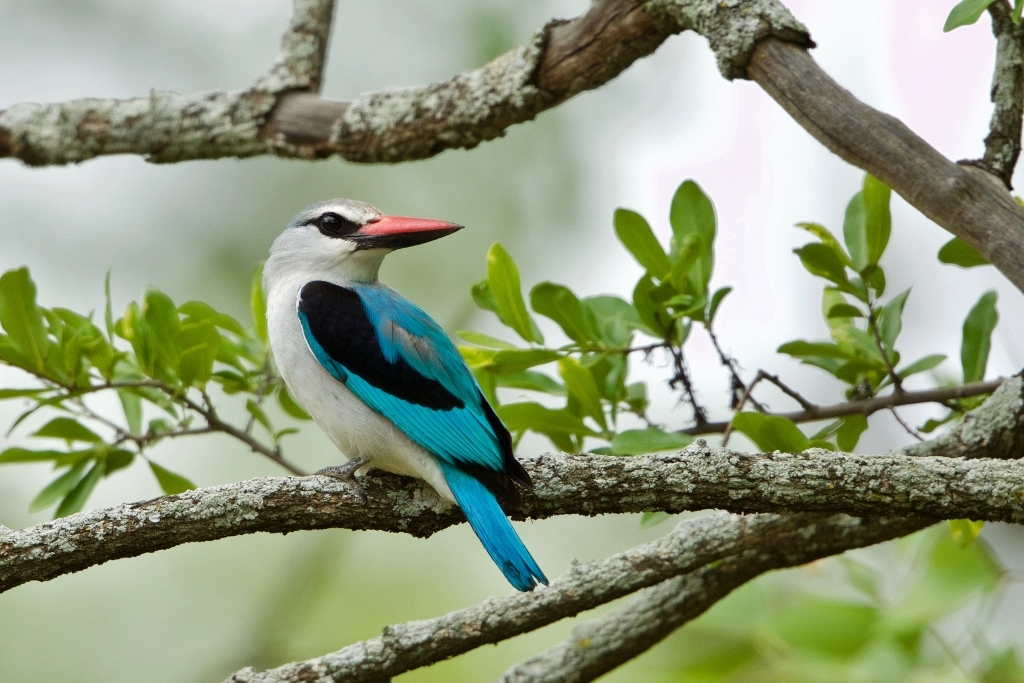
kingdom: Animalia
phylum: Chordata
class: Aves
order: Coraciiformes
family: Alcedinidae
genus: Halcyon
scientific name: Halcyon senegalensis
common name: Woodland kingfisher
